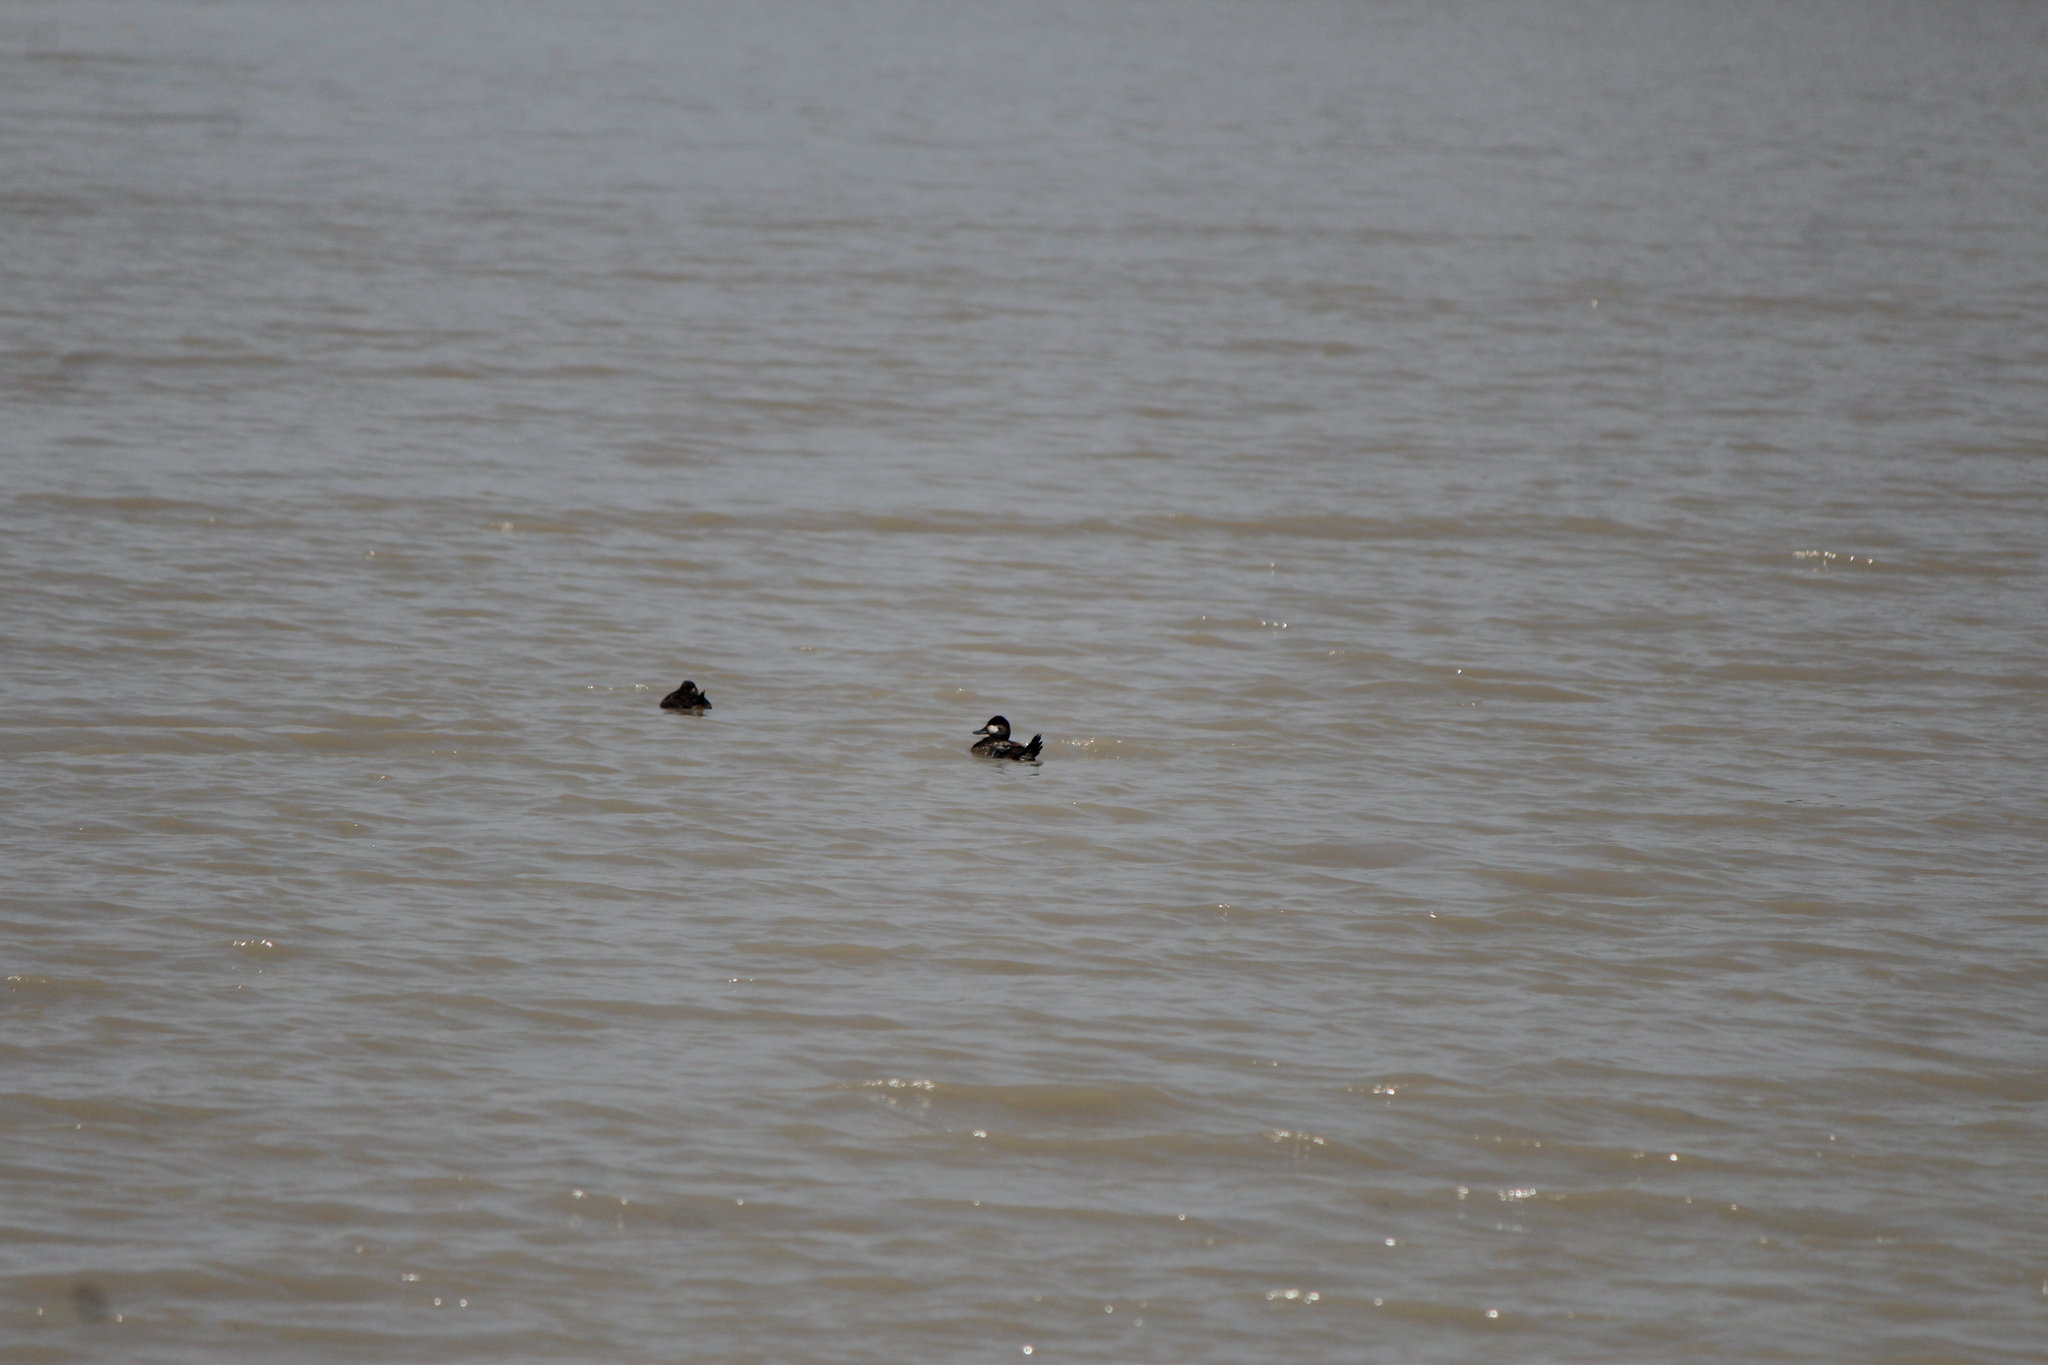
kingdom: Animalia
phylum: Chordata
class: Aves
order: Anseriformes
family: Anatidae
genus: Oxyura
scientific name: Oxyura jamaicensis
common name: Ruddy duck
